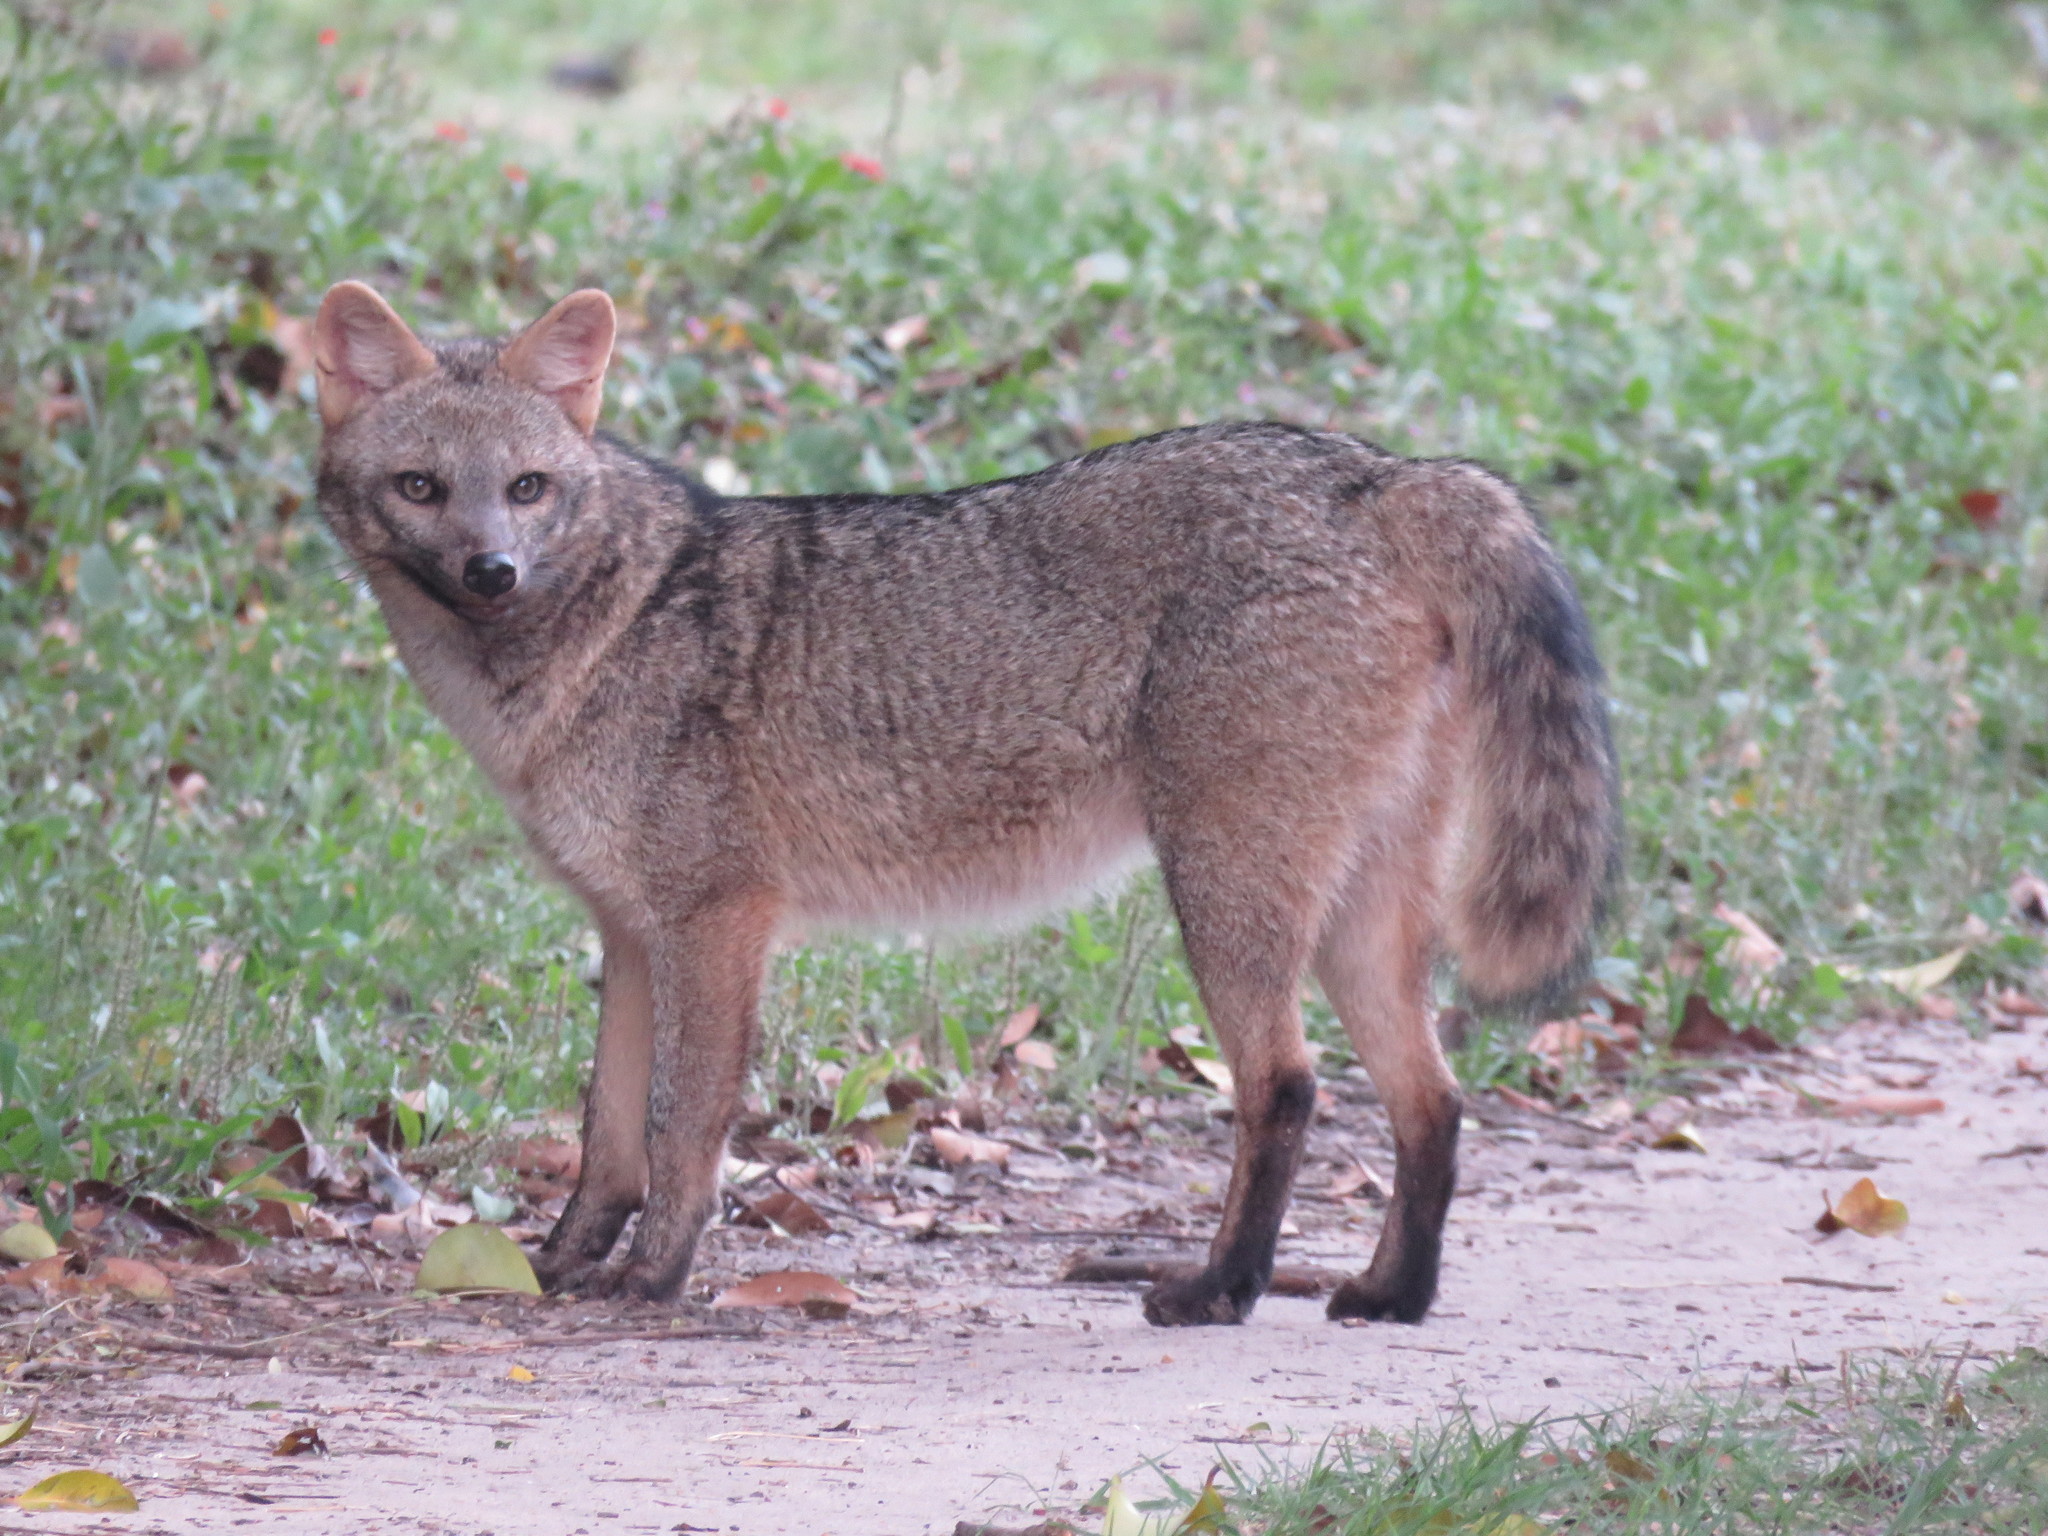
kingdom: Animalia
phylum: Chordata
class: Mammalia
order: Carnivora
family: Canidae
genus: Cerdocyon
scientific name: Cerdocyon thous
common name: Crab-eating fox
